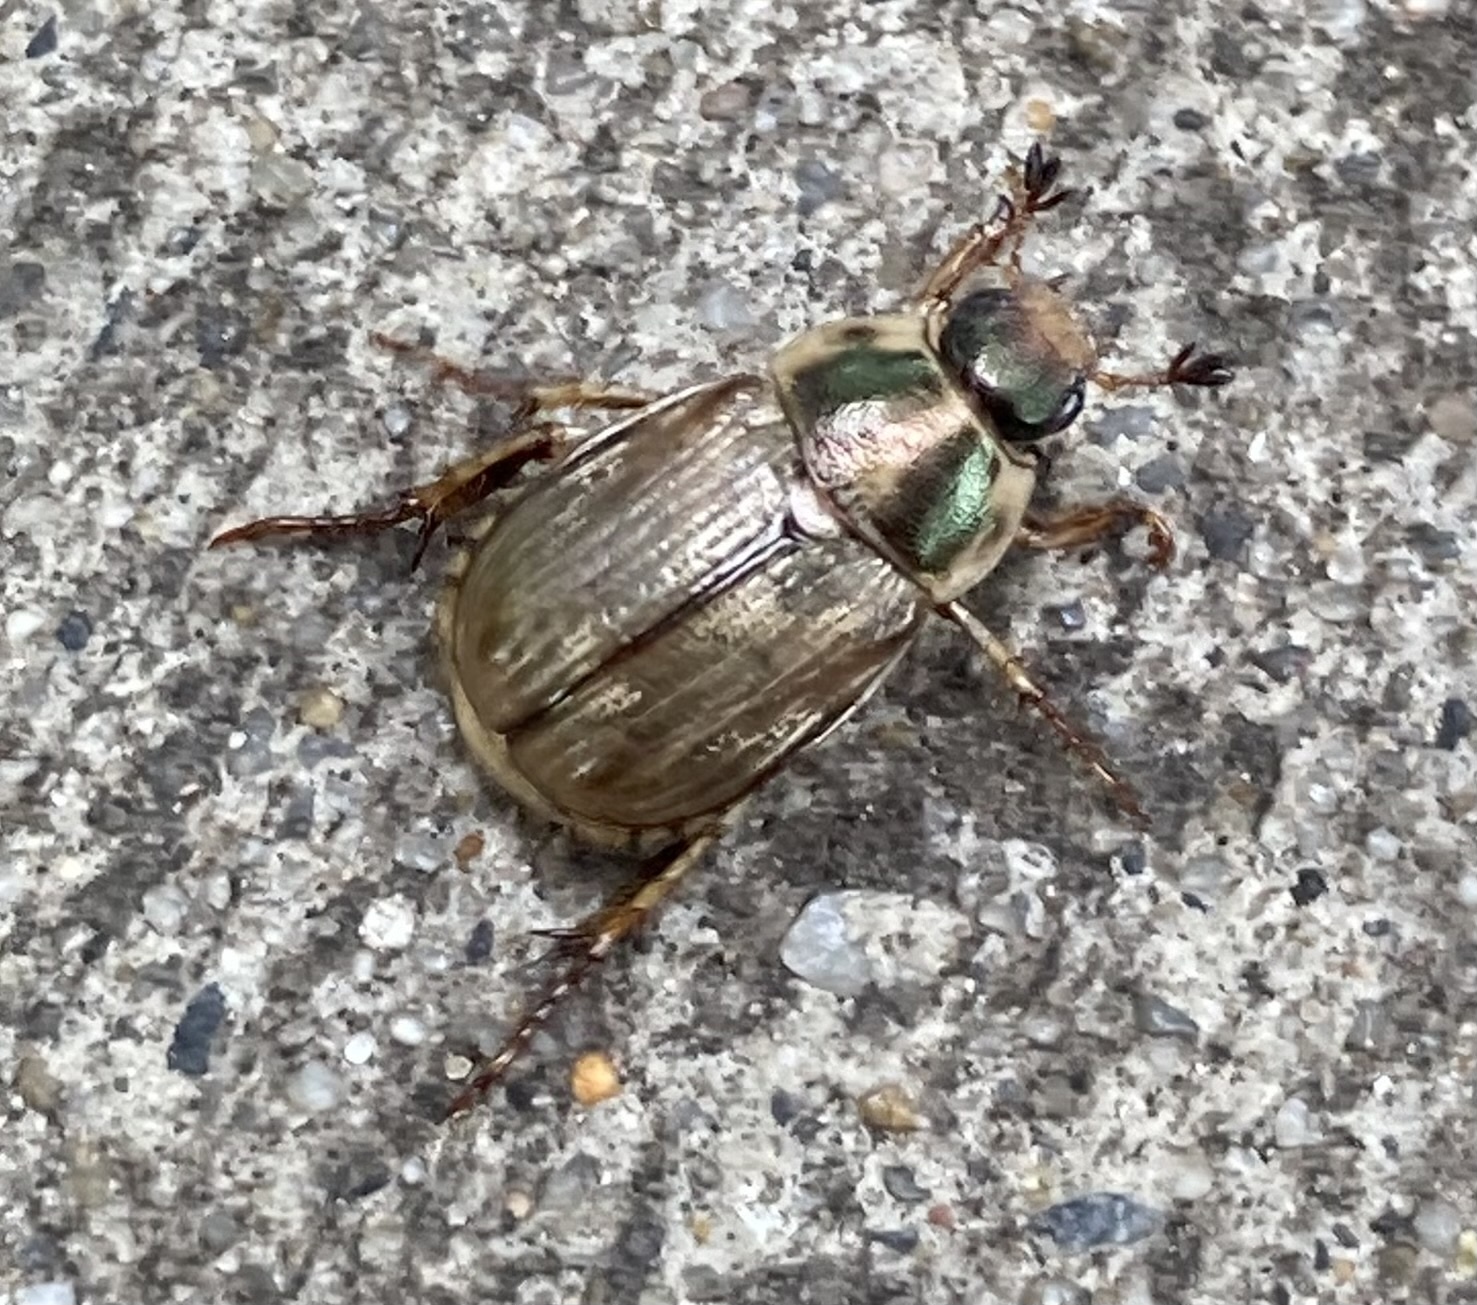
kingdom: Animalia
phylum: Arthropoda
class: Insecta
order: Coleoptera
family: Scarabaeidae
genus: Exomala
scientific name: Exomala orientalis
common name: Oriental beetle
